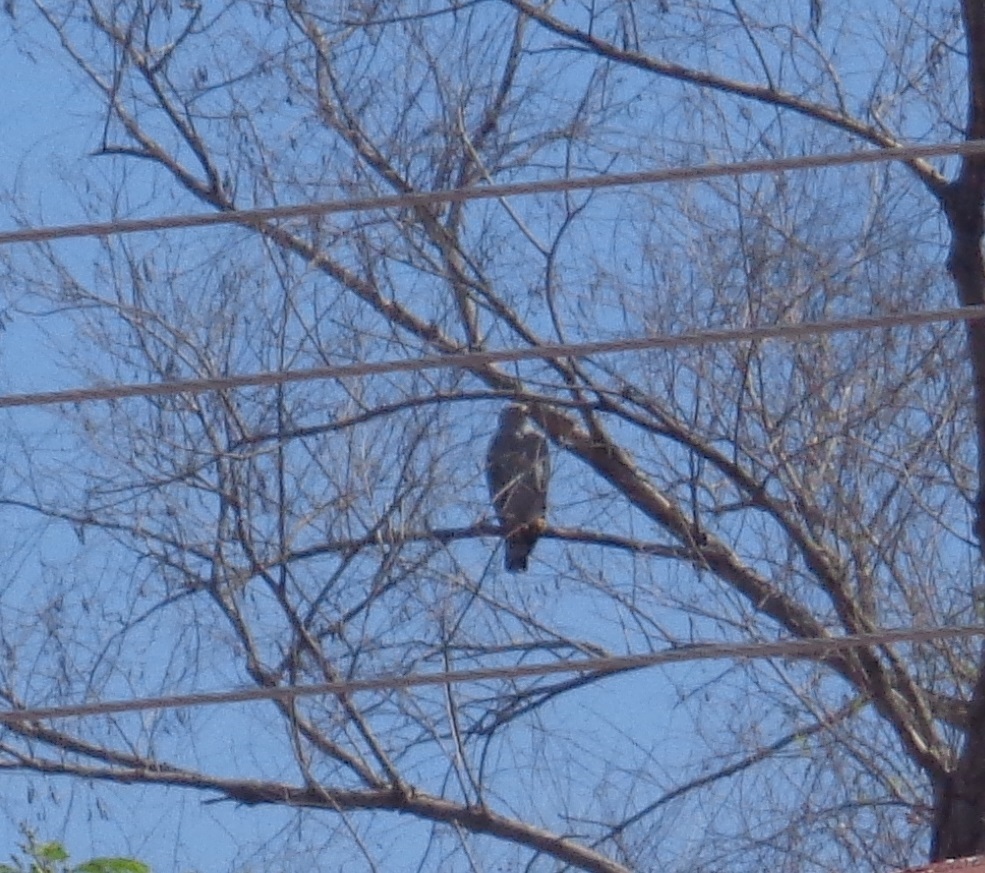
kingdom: Animalia
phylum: Chordata
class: Aves
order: Accipitriformes
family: Accipitridae
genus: Buteo
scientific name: Buteo nitidus
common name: Grey-lined hawk
